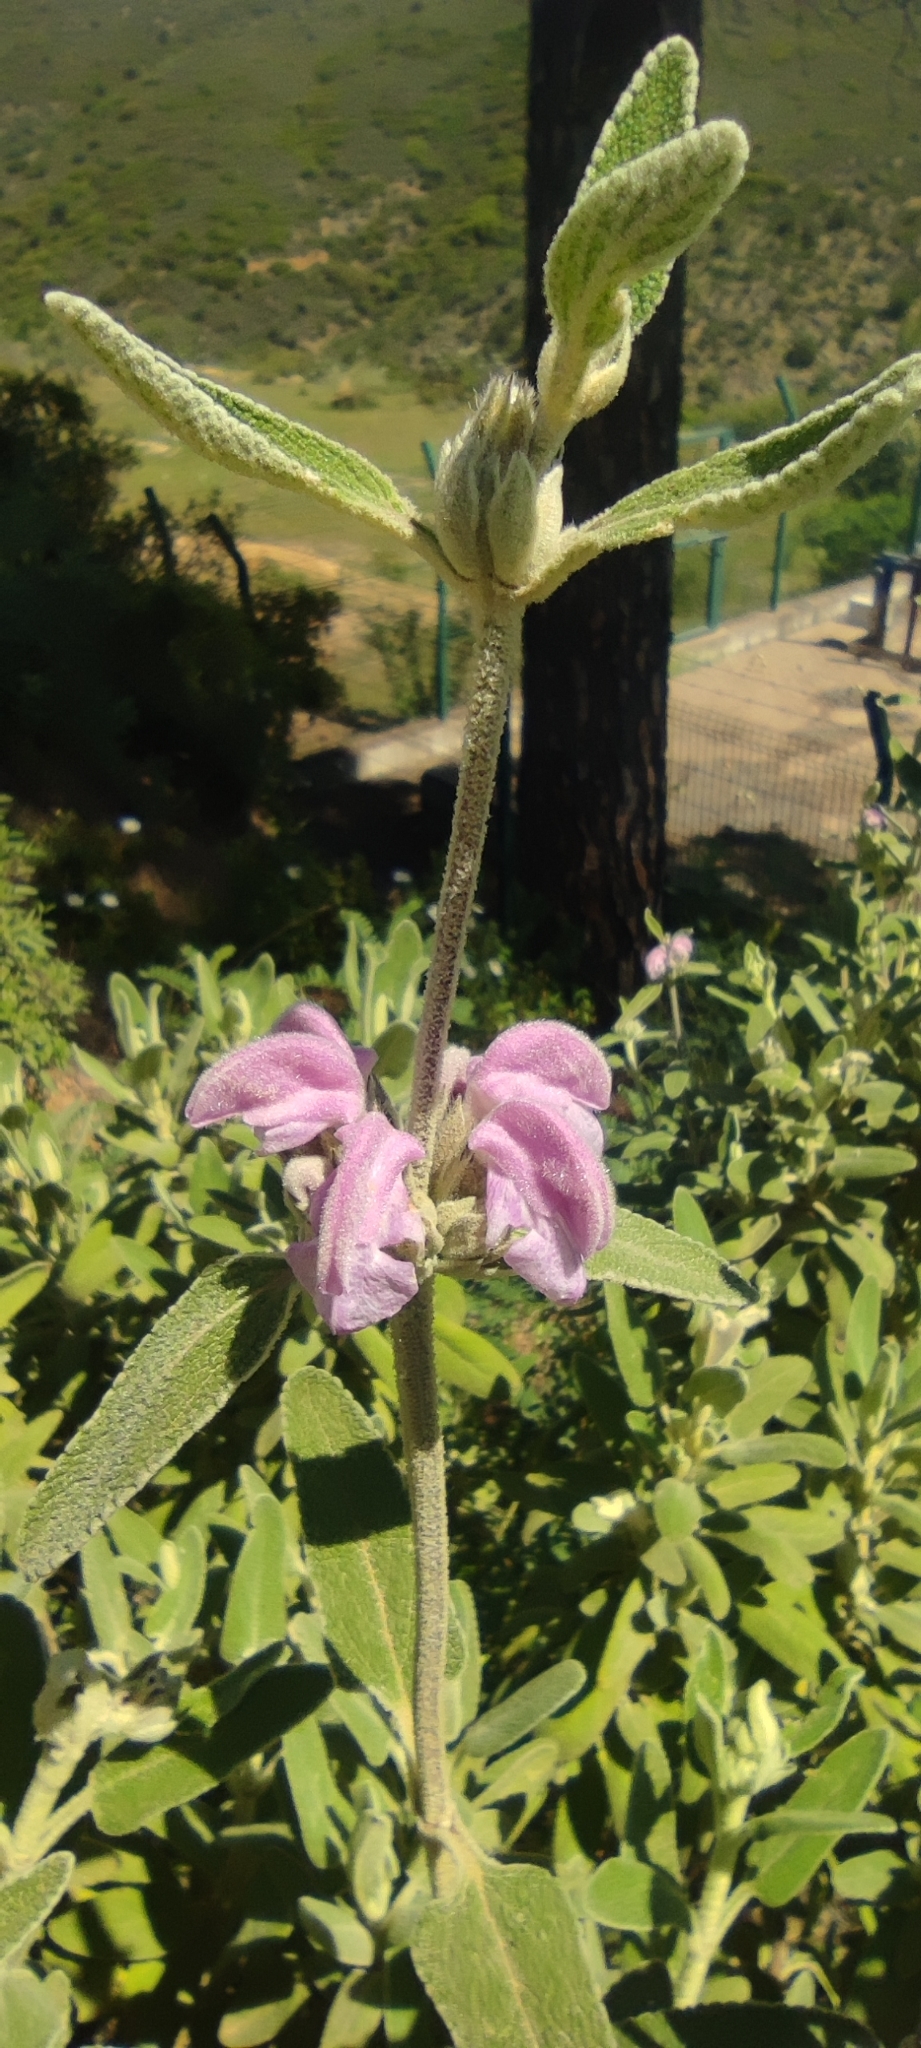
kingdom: Plantae
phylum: Tracheophyta
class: Magnoliopsida
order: Lamiales
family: Lamiaceae
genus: Phlomis
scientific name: Phlomis purpurea
